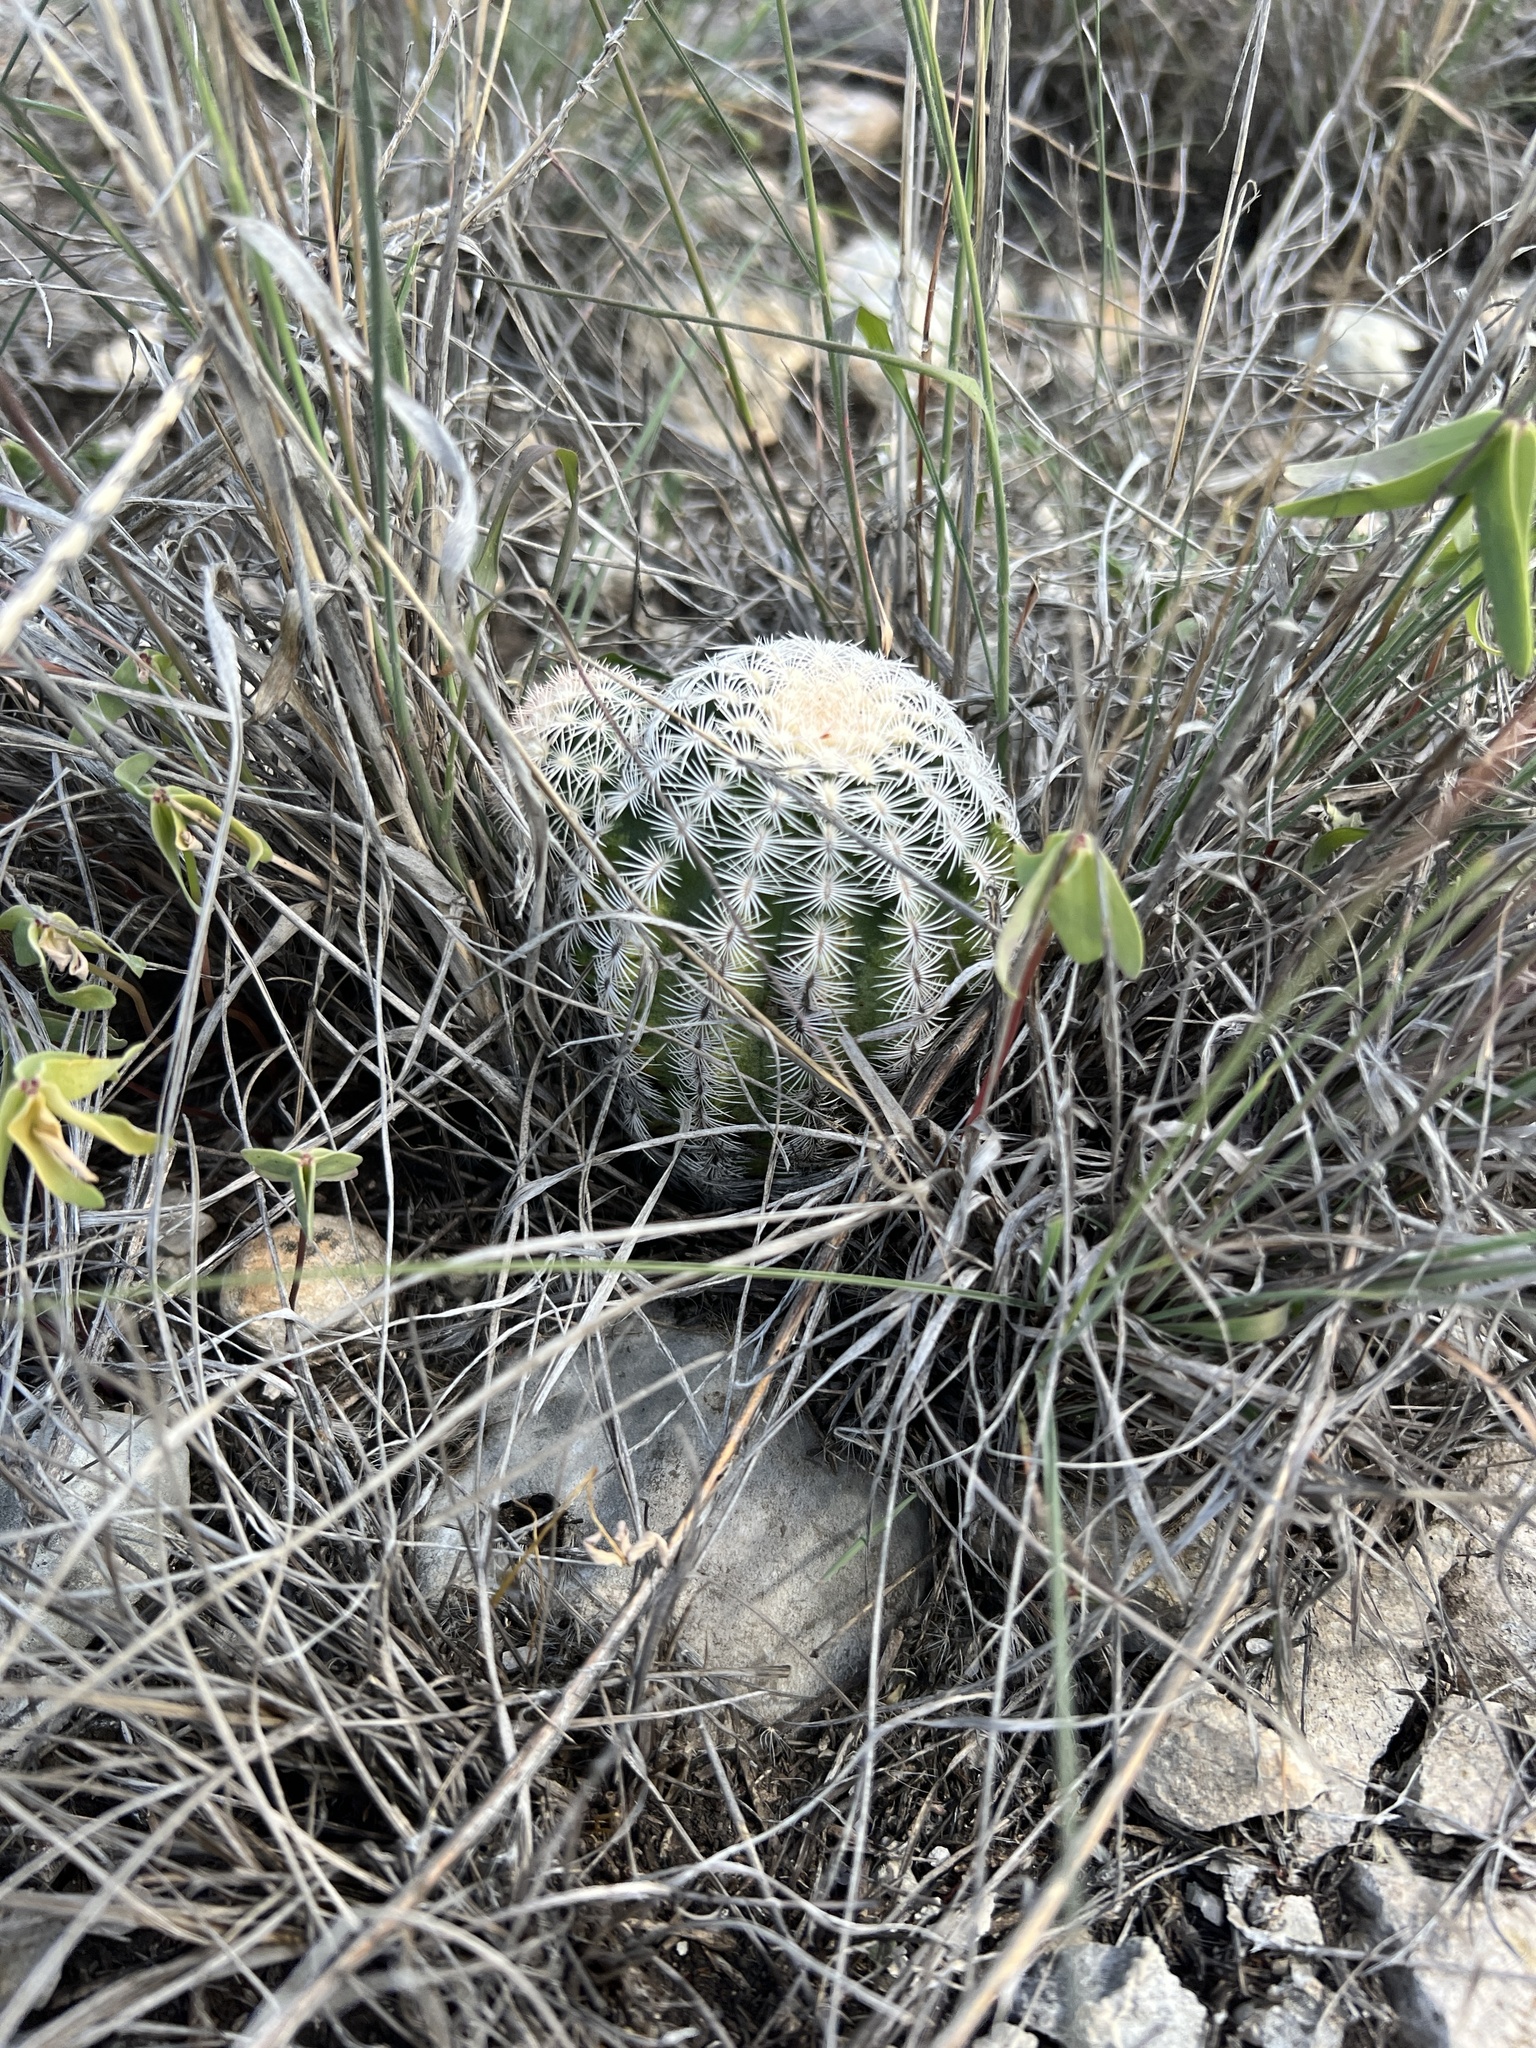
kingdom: Plantae
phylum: Tracheophyta
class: Magnoliopsida
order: Caryophyllales
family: Cactaceae
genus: Echinocereus
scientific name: Echinocereus reichenbachii
